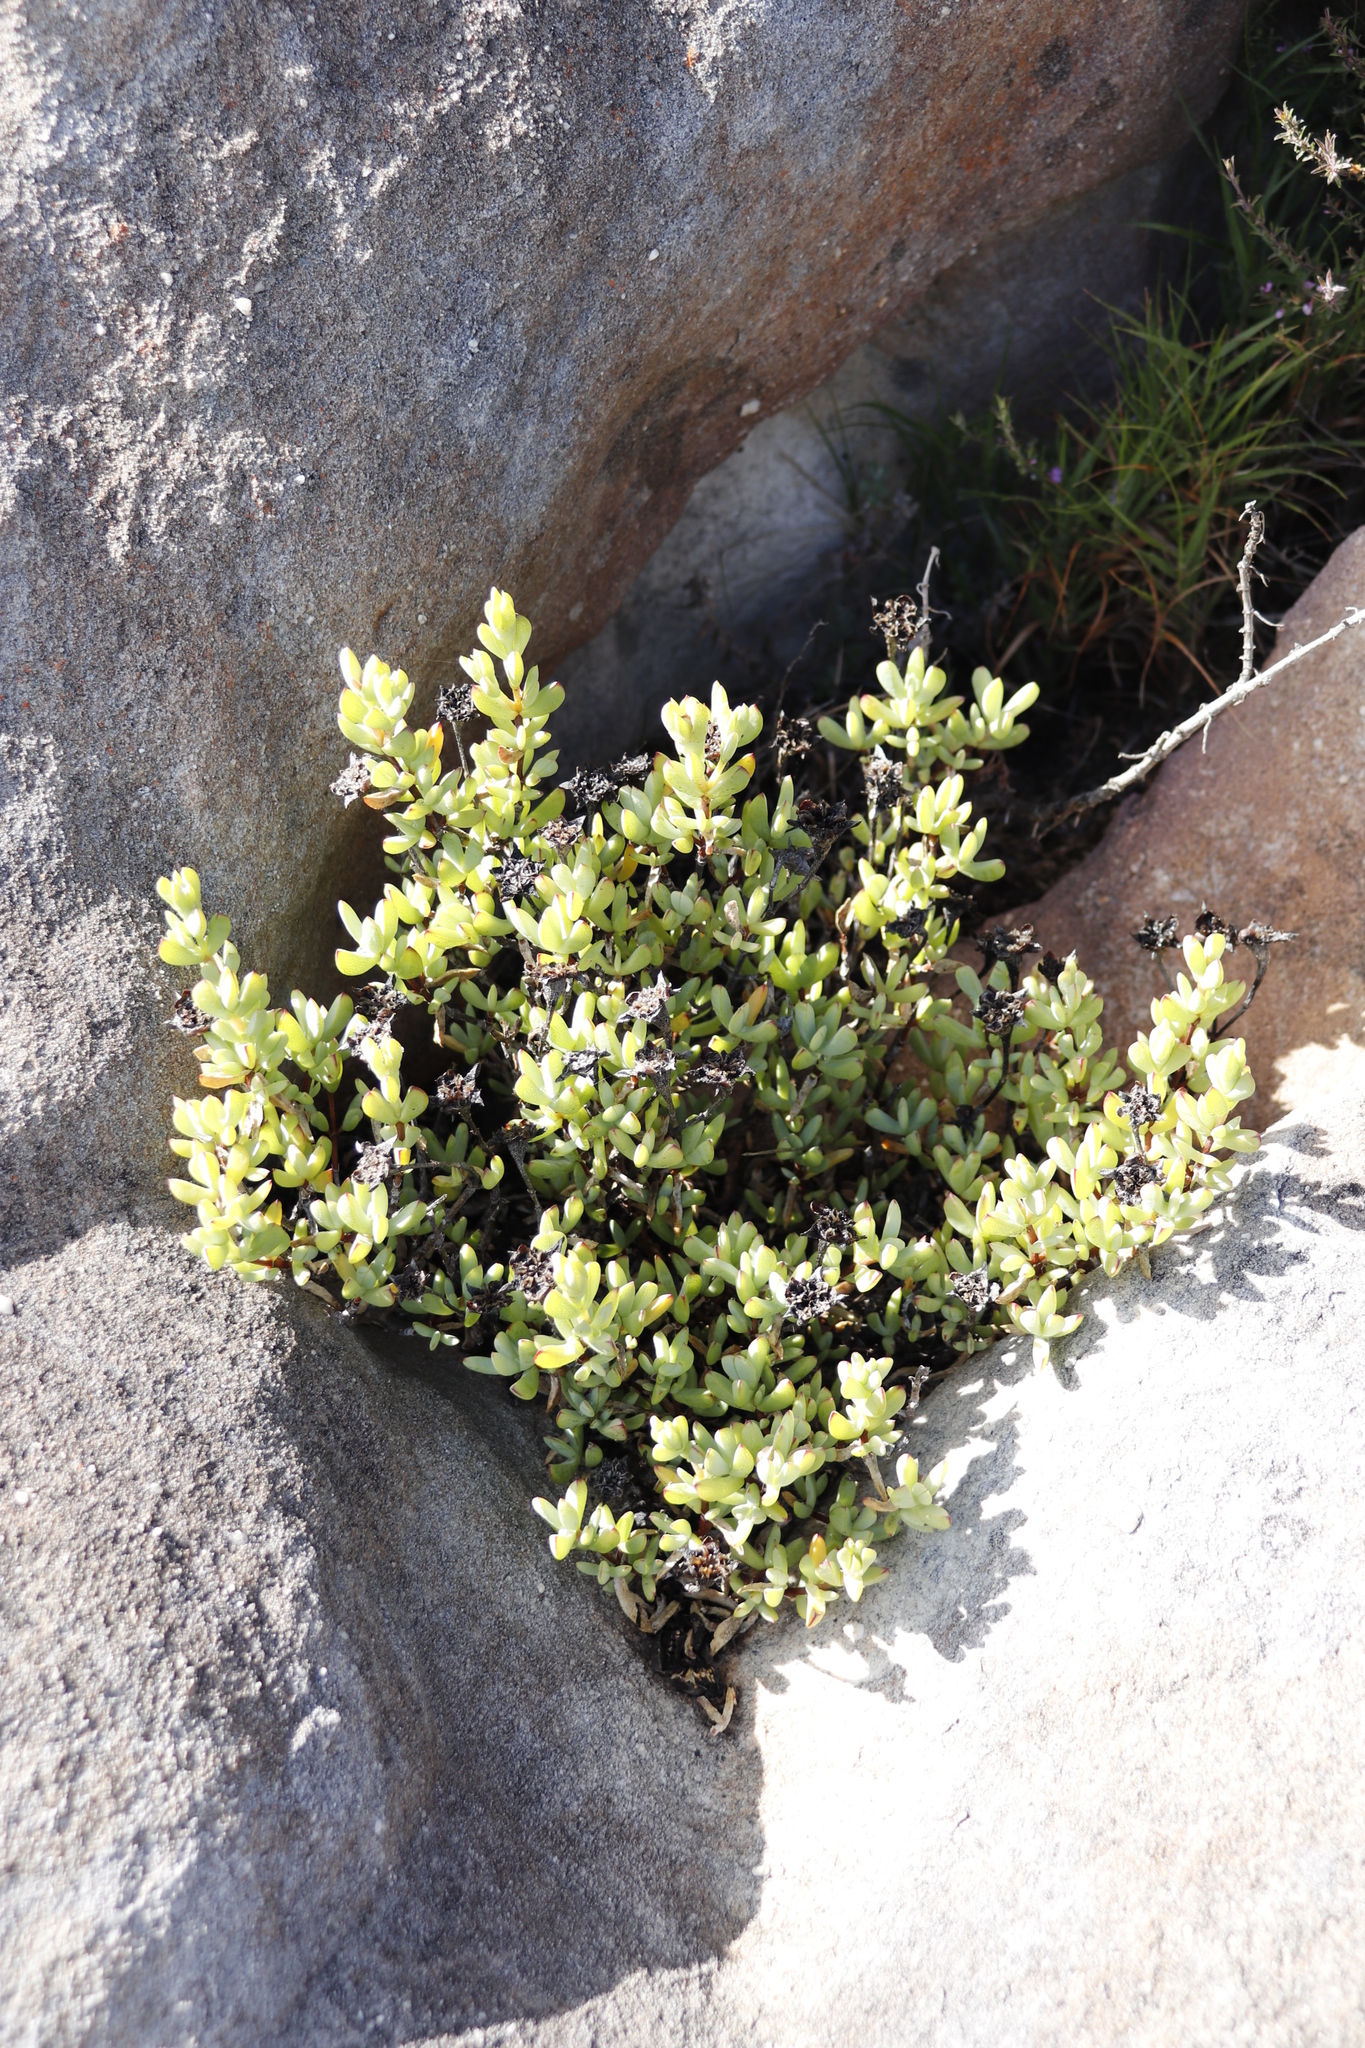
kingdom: Plantae
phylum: Tracheophyta
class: Magnoliopsida
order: Caryophyllales
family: Aizoaceae
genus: Oscularia
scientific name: Oscularia falciformis
